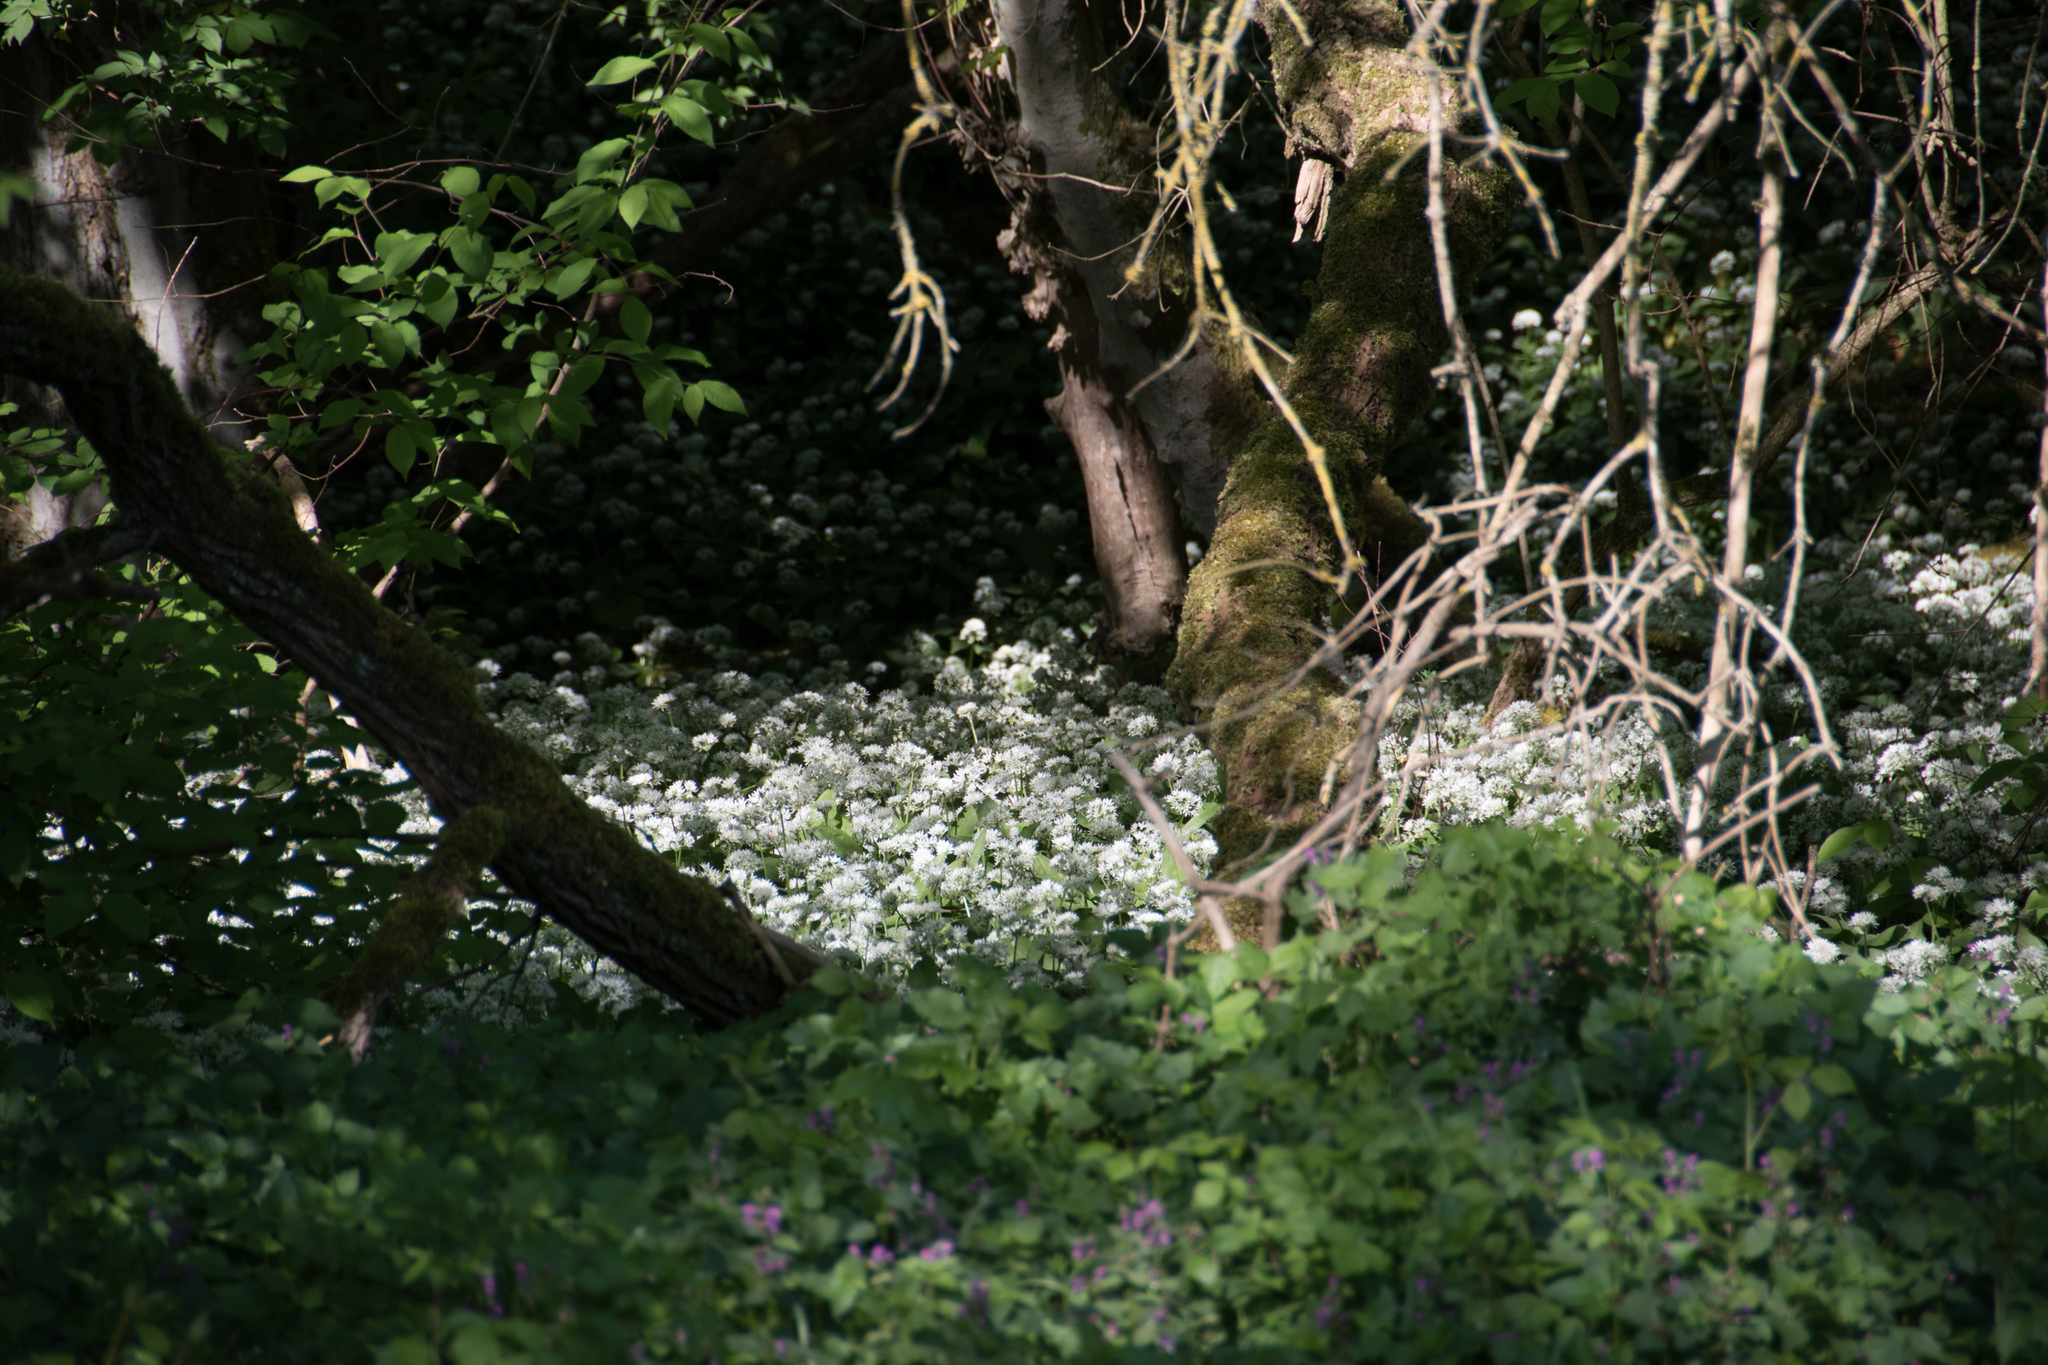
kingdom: Plantae
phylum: Tracheophyta
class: Liliopsida
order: Asparagales
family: Amaryllidaceae
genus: Allium
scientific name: Allium ursinum
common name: Ramsons
